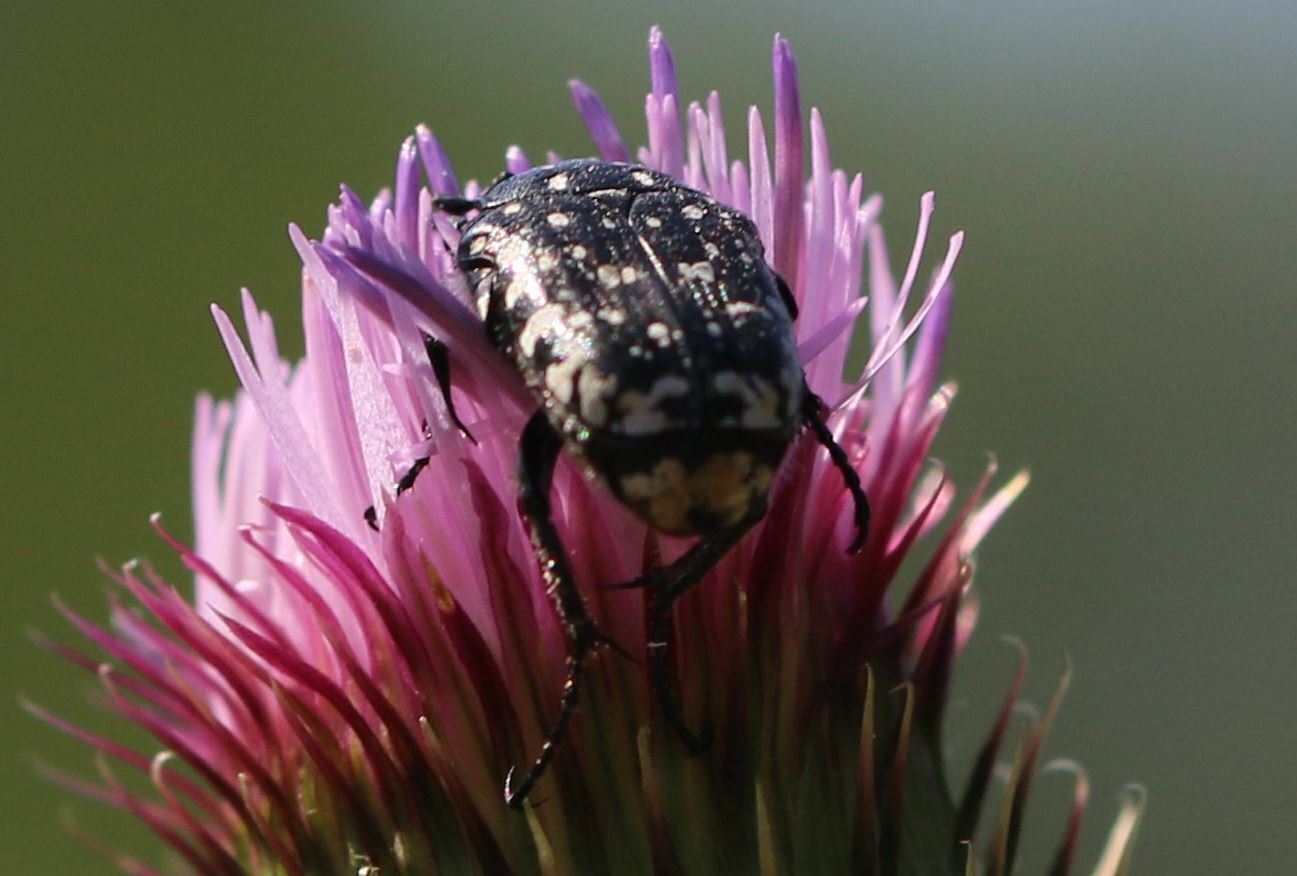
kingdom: Animalia
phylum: Arthropoda
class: Insecta
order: Coleoptera
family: Scarabaeidae
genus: Oxythyrea
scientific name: Oxythyrea funesta
